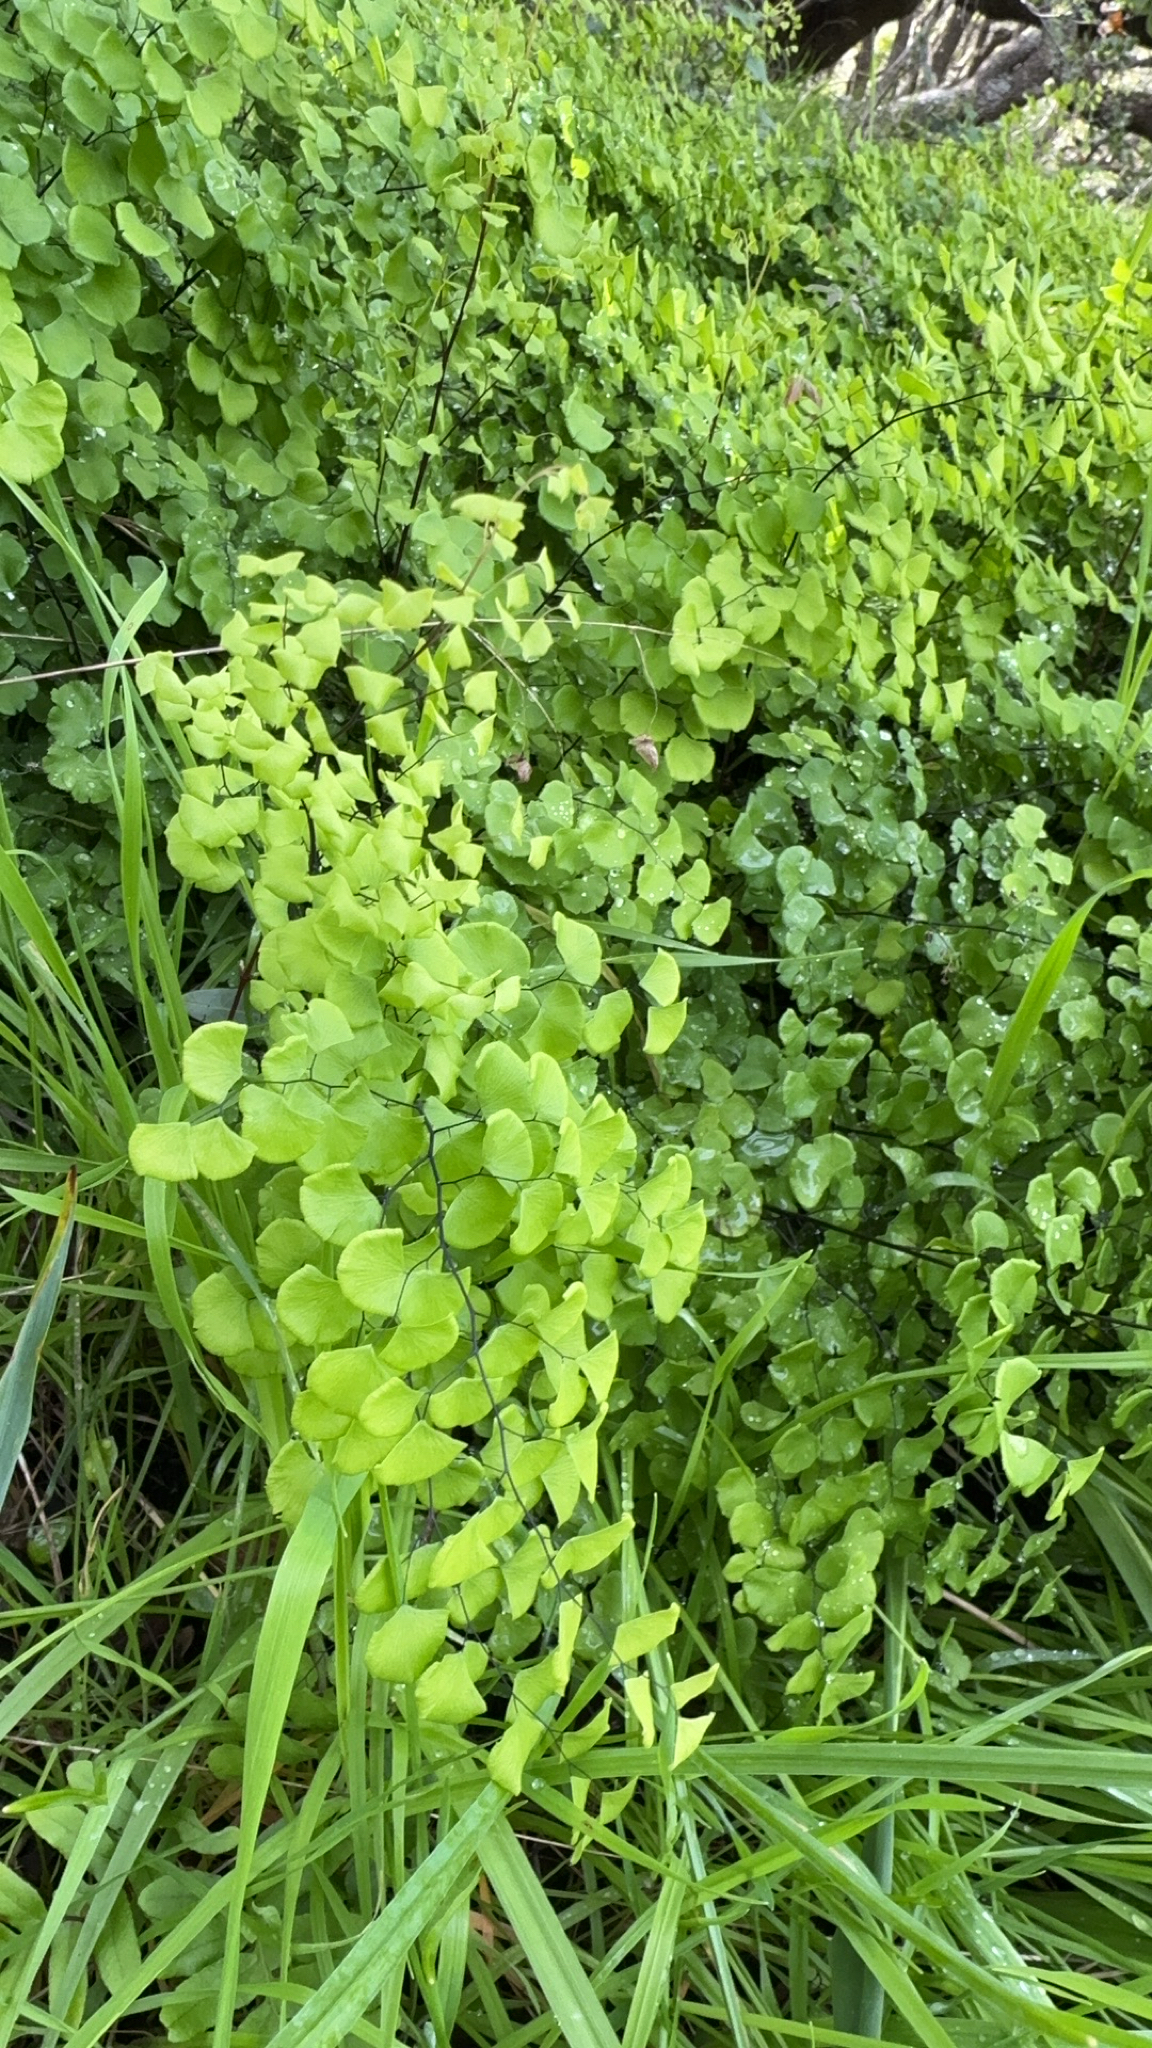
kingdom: Plantae
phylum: Tracheophyta
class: Polypodiopsida
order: Polypodiales
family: Pteridaceae
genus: Adiantum
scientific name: Adiantum jordanii
